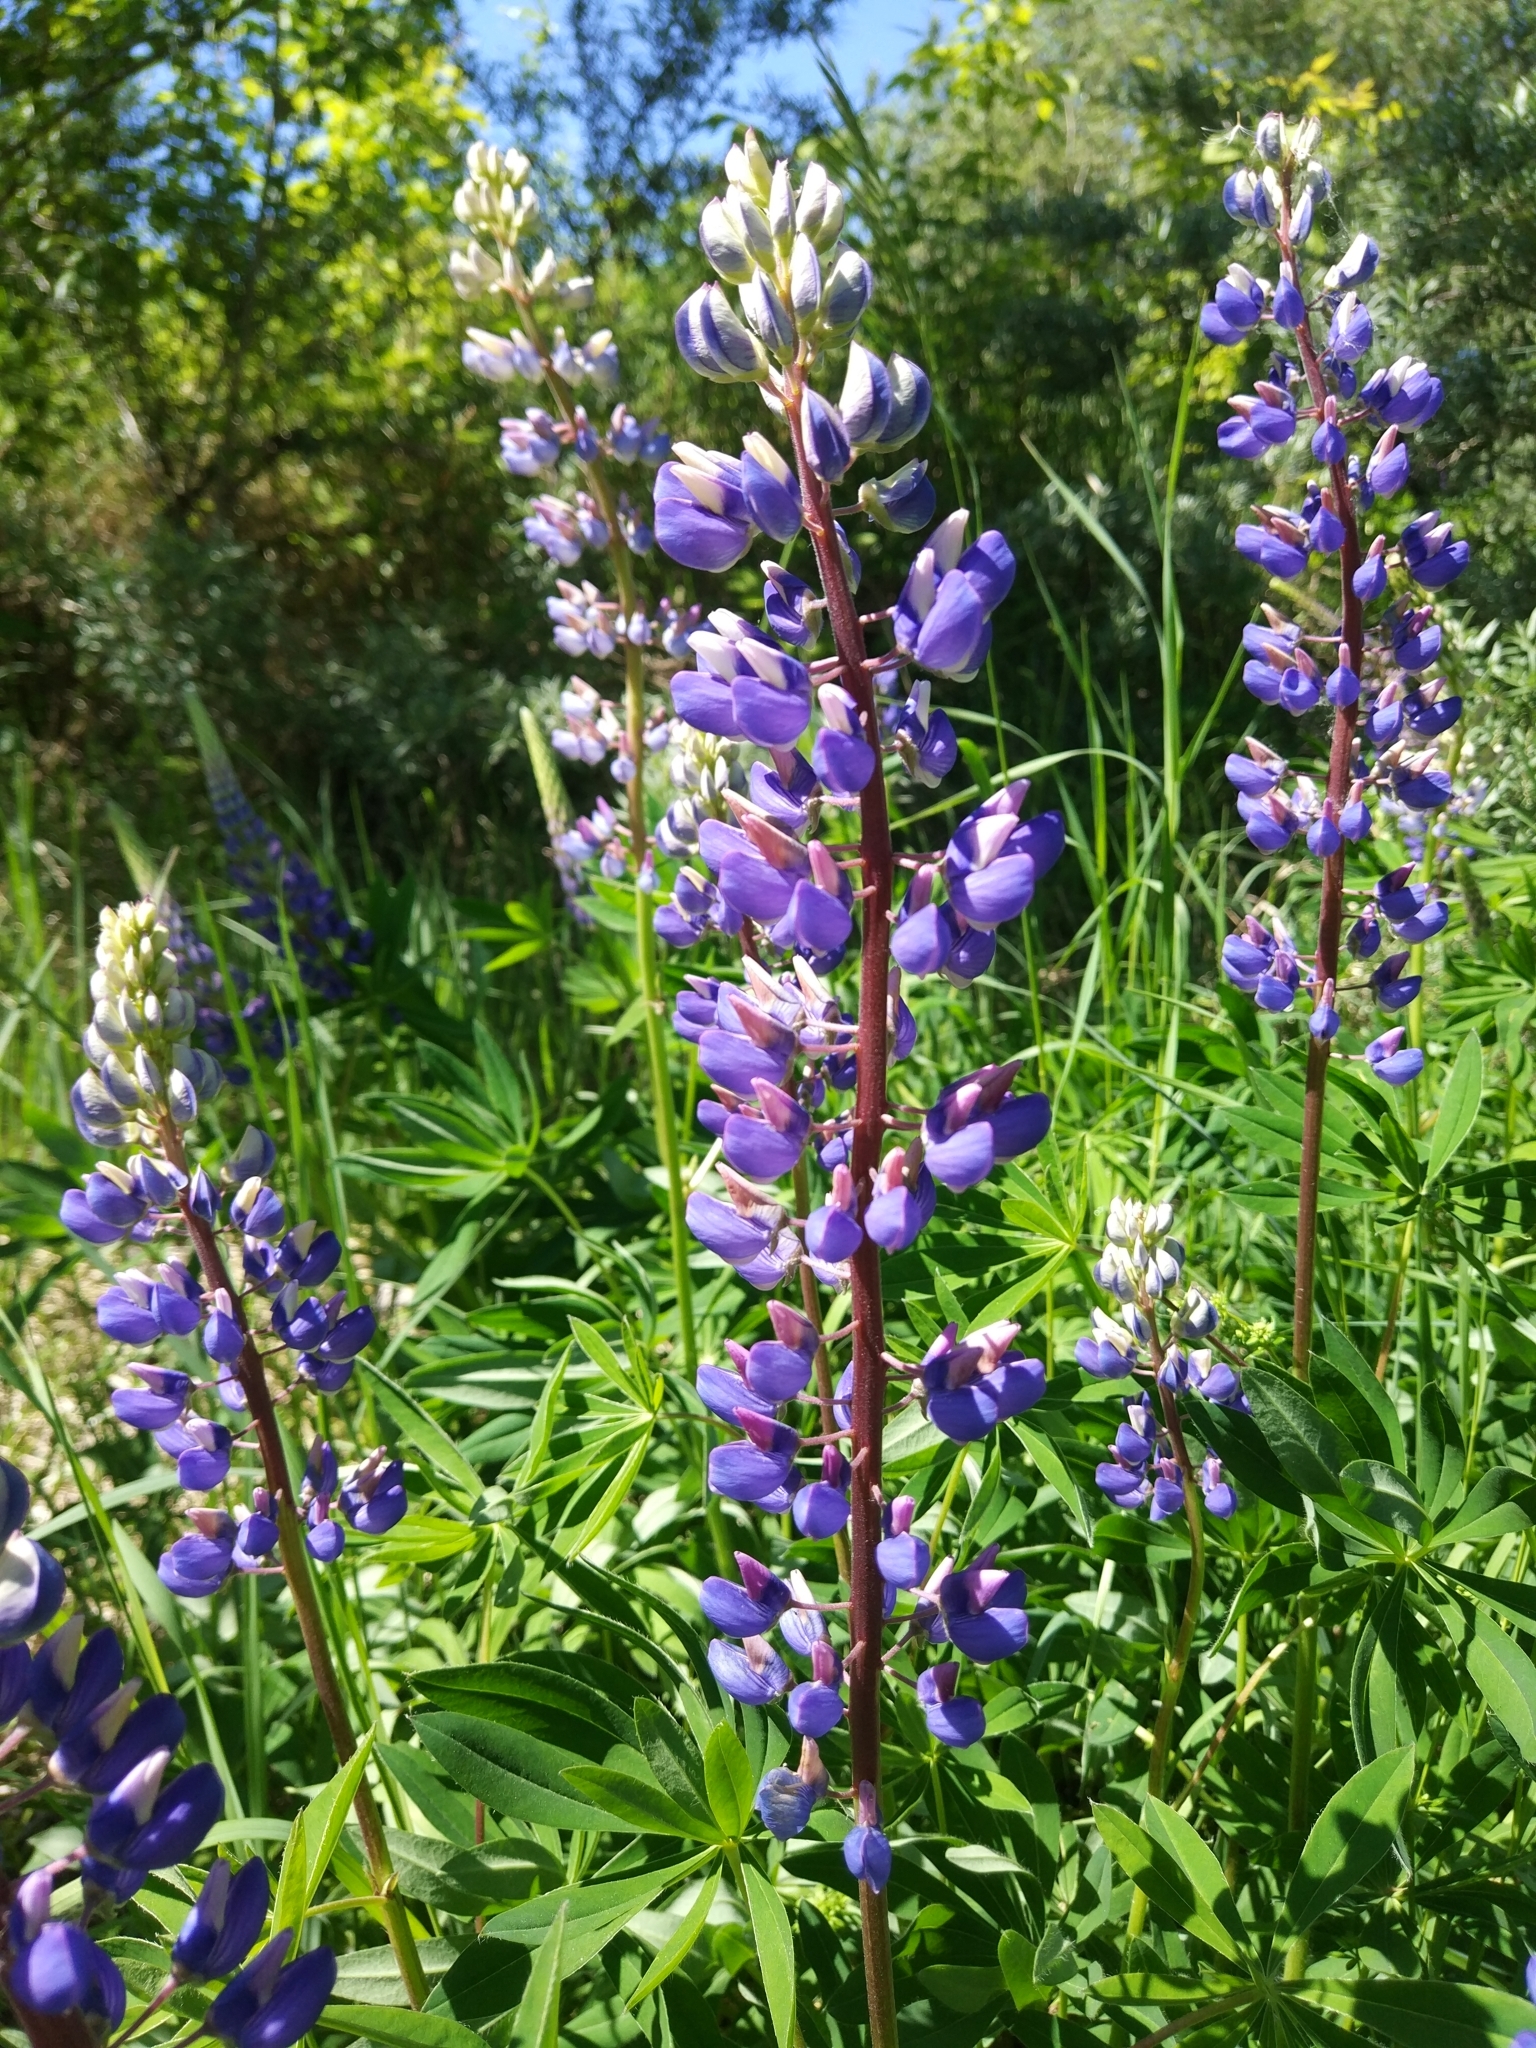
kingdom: Plantae
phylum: Tracheophyta
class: Magnoliopsida
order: Fabales
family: Fabaceae
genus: Lupinus
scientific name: Lupinus polyphyllus
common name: Garden lupin
